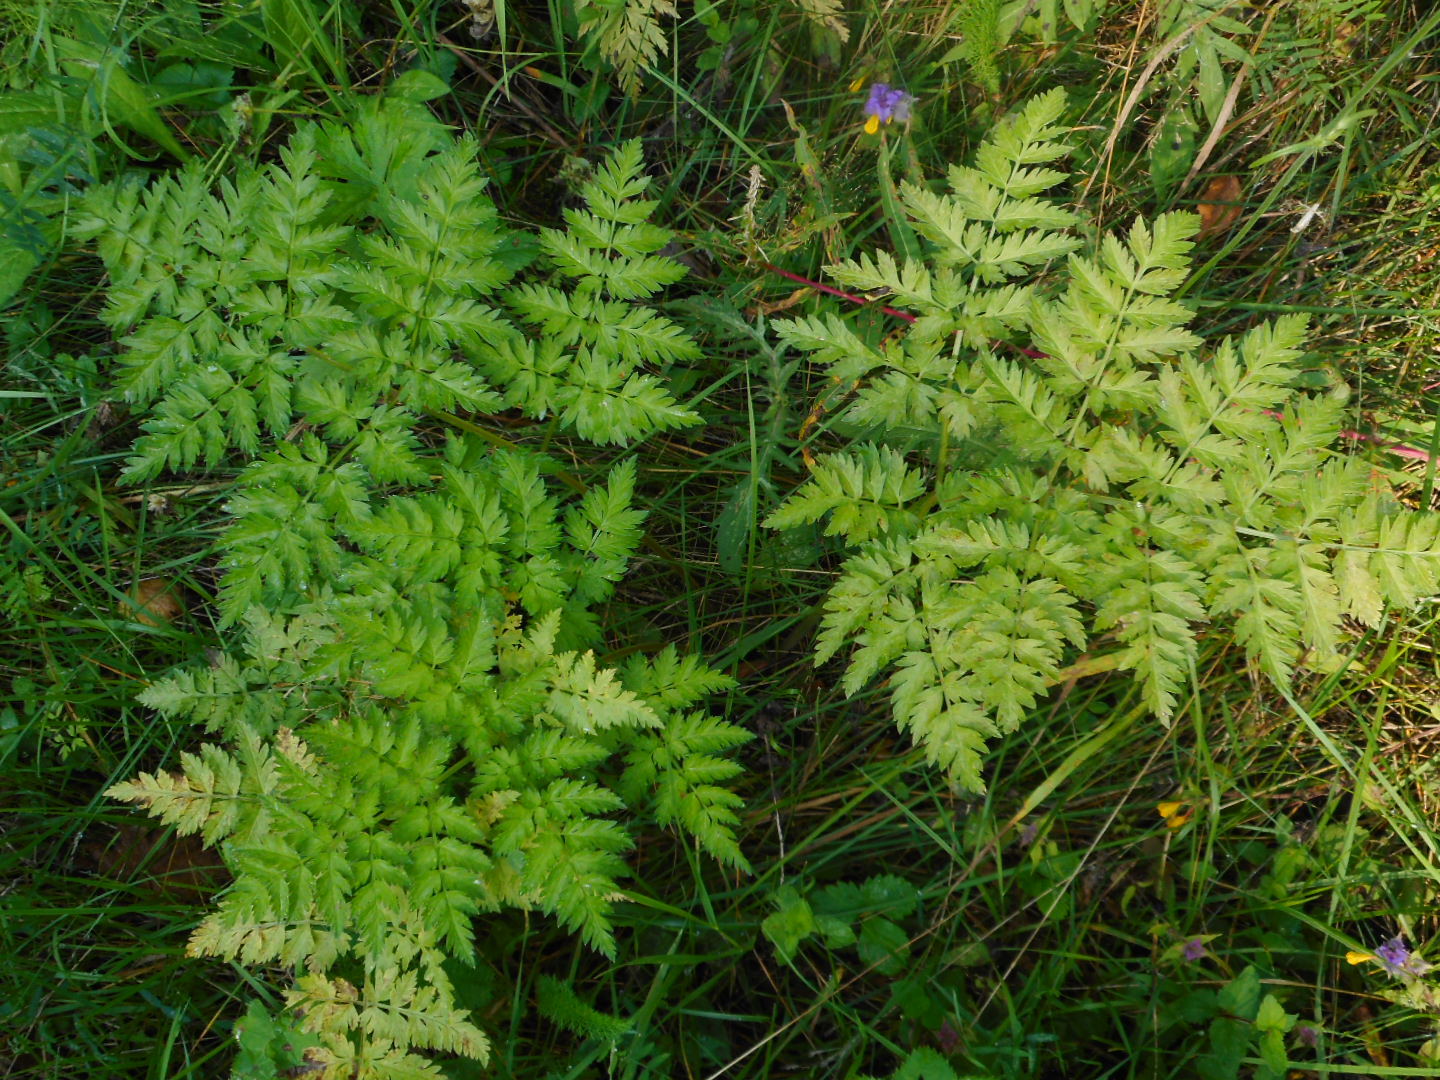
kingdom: Plantae
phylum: Tracheophyta
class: Magnoliopsida
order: Apiales
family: Apiaceae
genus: Anthriscus
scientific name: Anthriscus sylvestris
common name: Cow parsley
